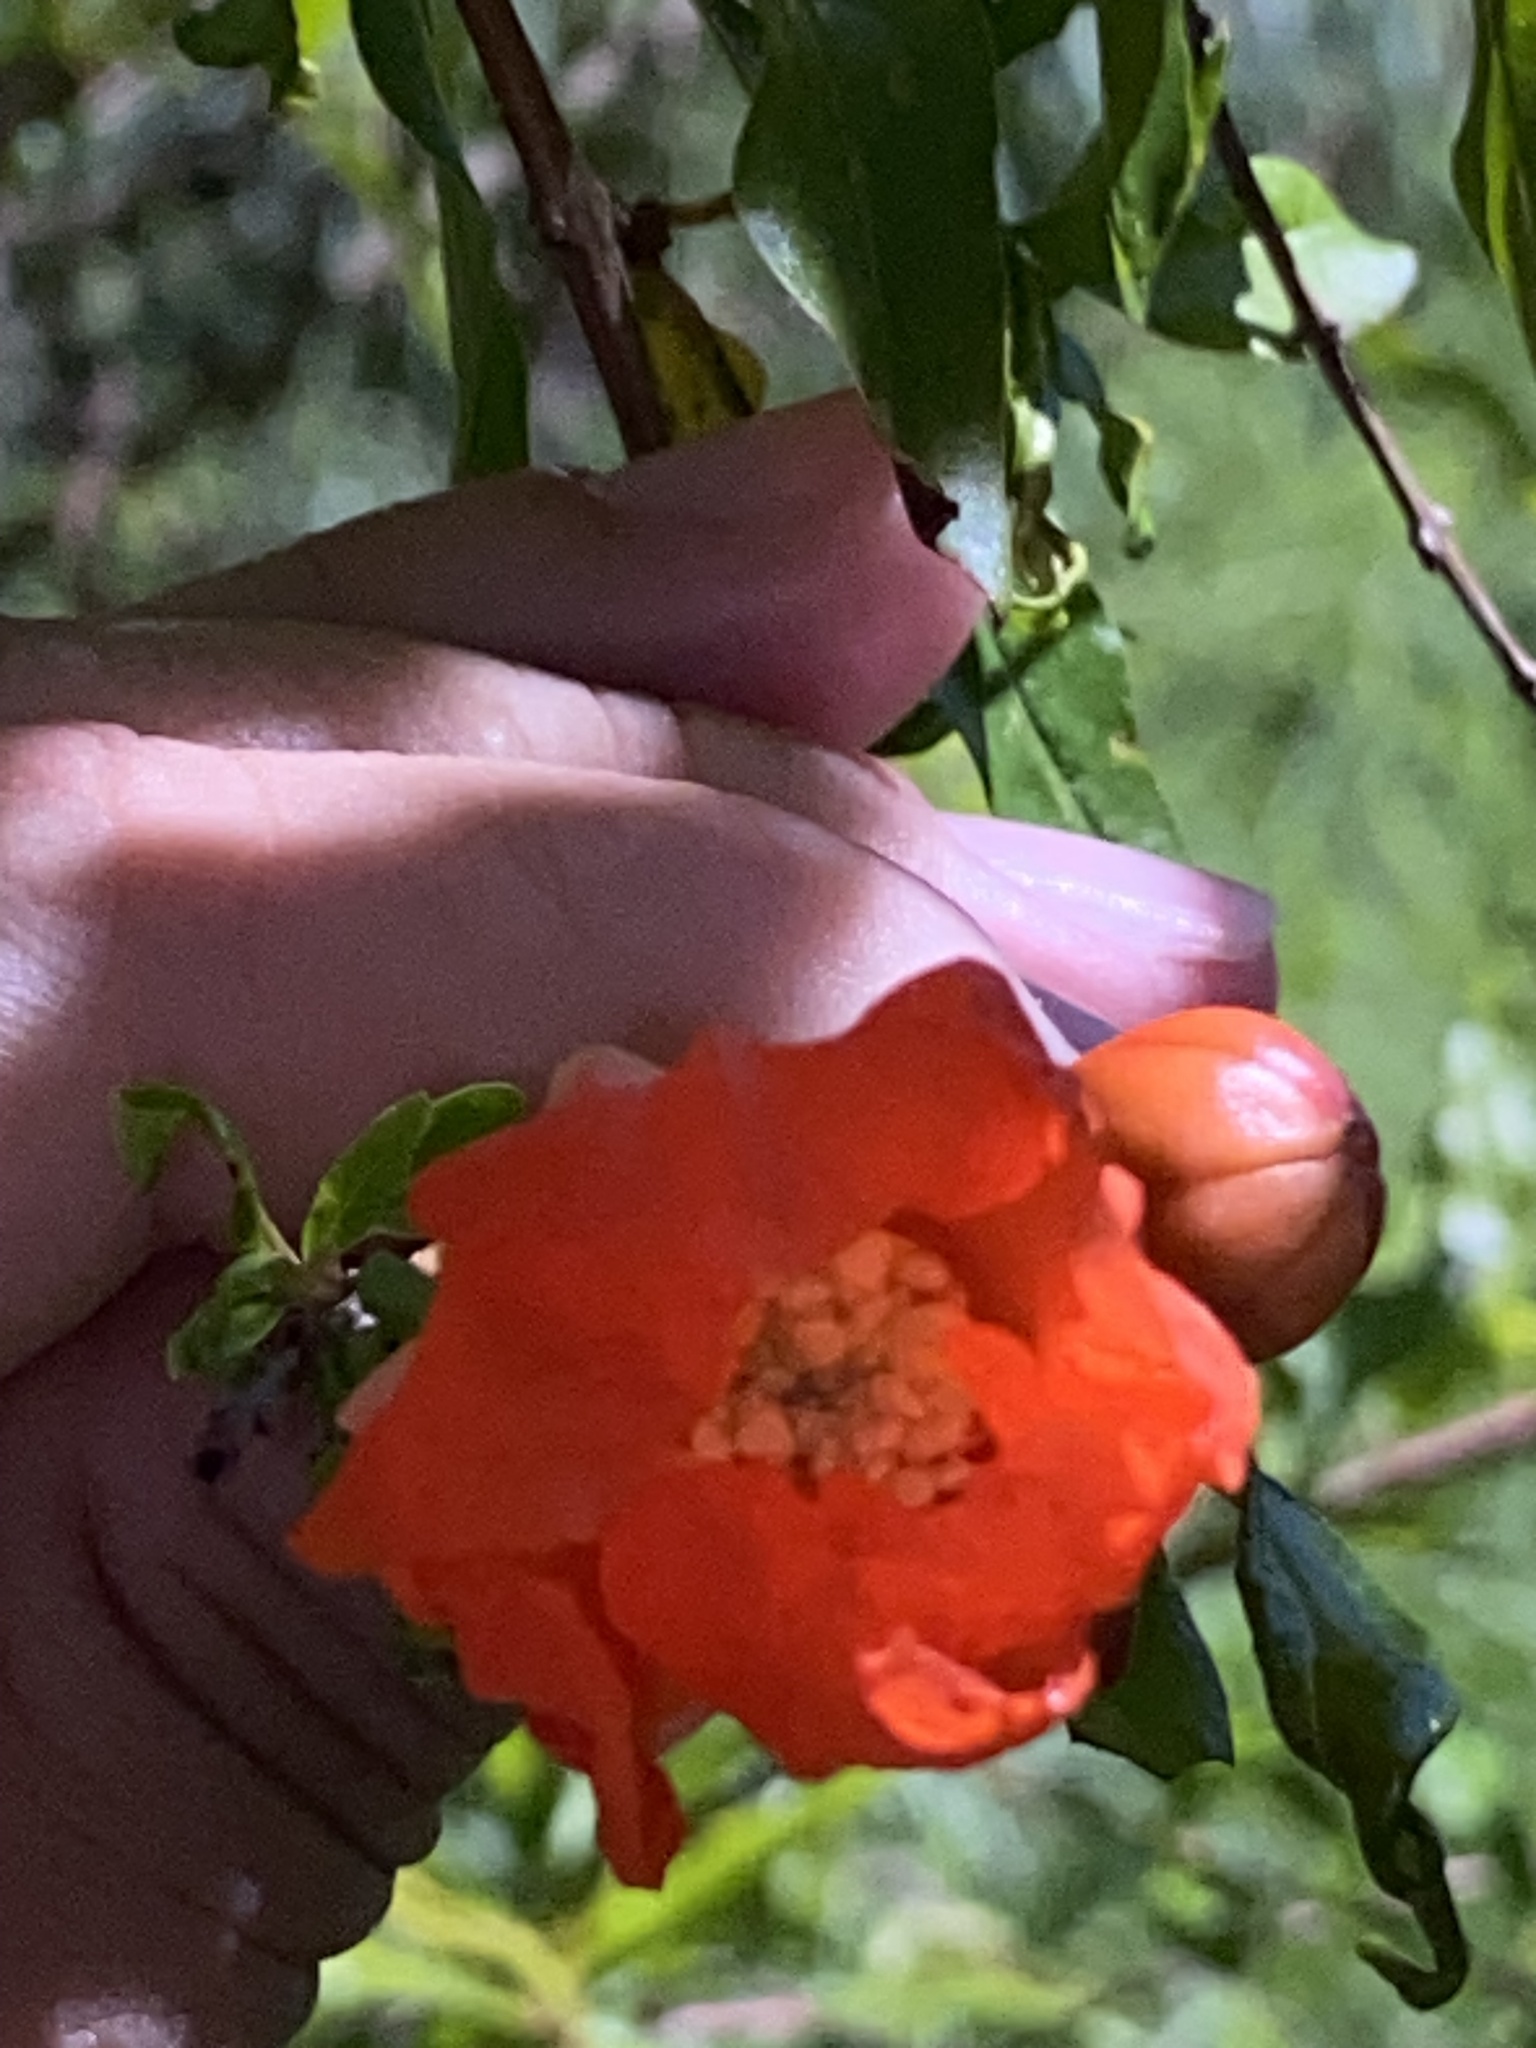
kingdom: Plantae
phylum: Tracheophyta
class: Magnoliopsida
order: Myrtales
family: Lythraceae
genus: Punica
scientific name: Punica granatum
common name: Pomegranate
